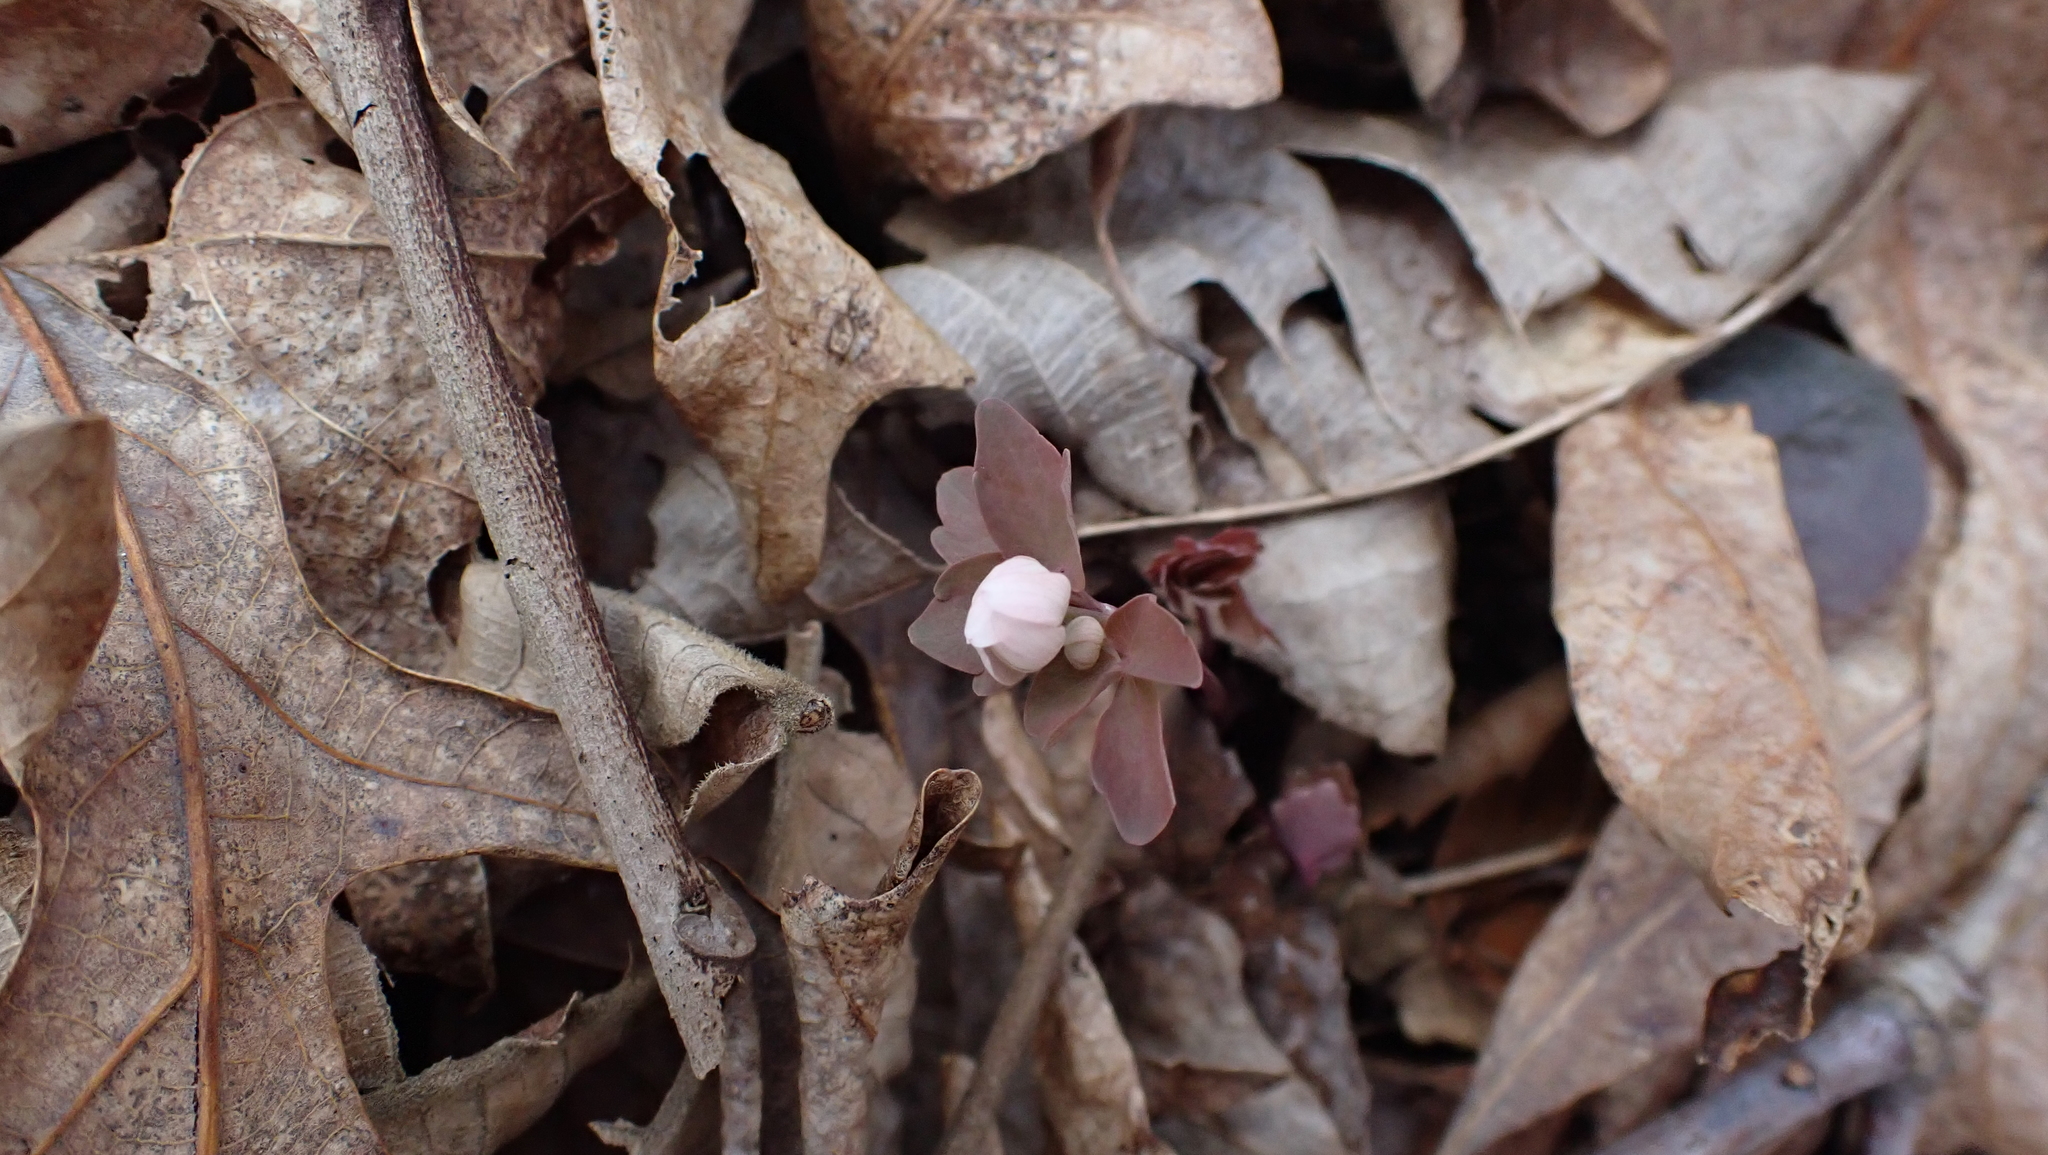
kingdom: Plantae
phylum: Tracheophyta
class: Magnoliopsida
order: Ranunculales
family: Ranunculaceae
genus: Thalictrum
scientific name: Thalictrum thalictroides
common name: Rue-anemone
